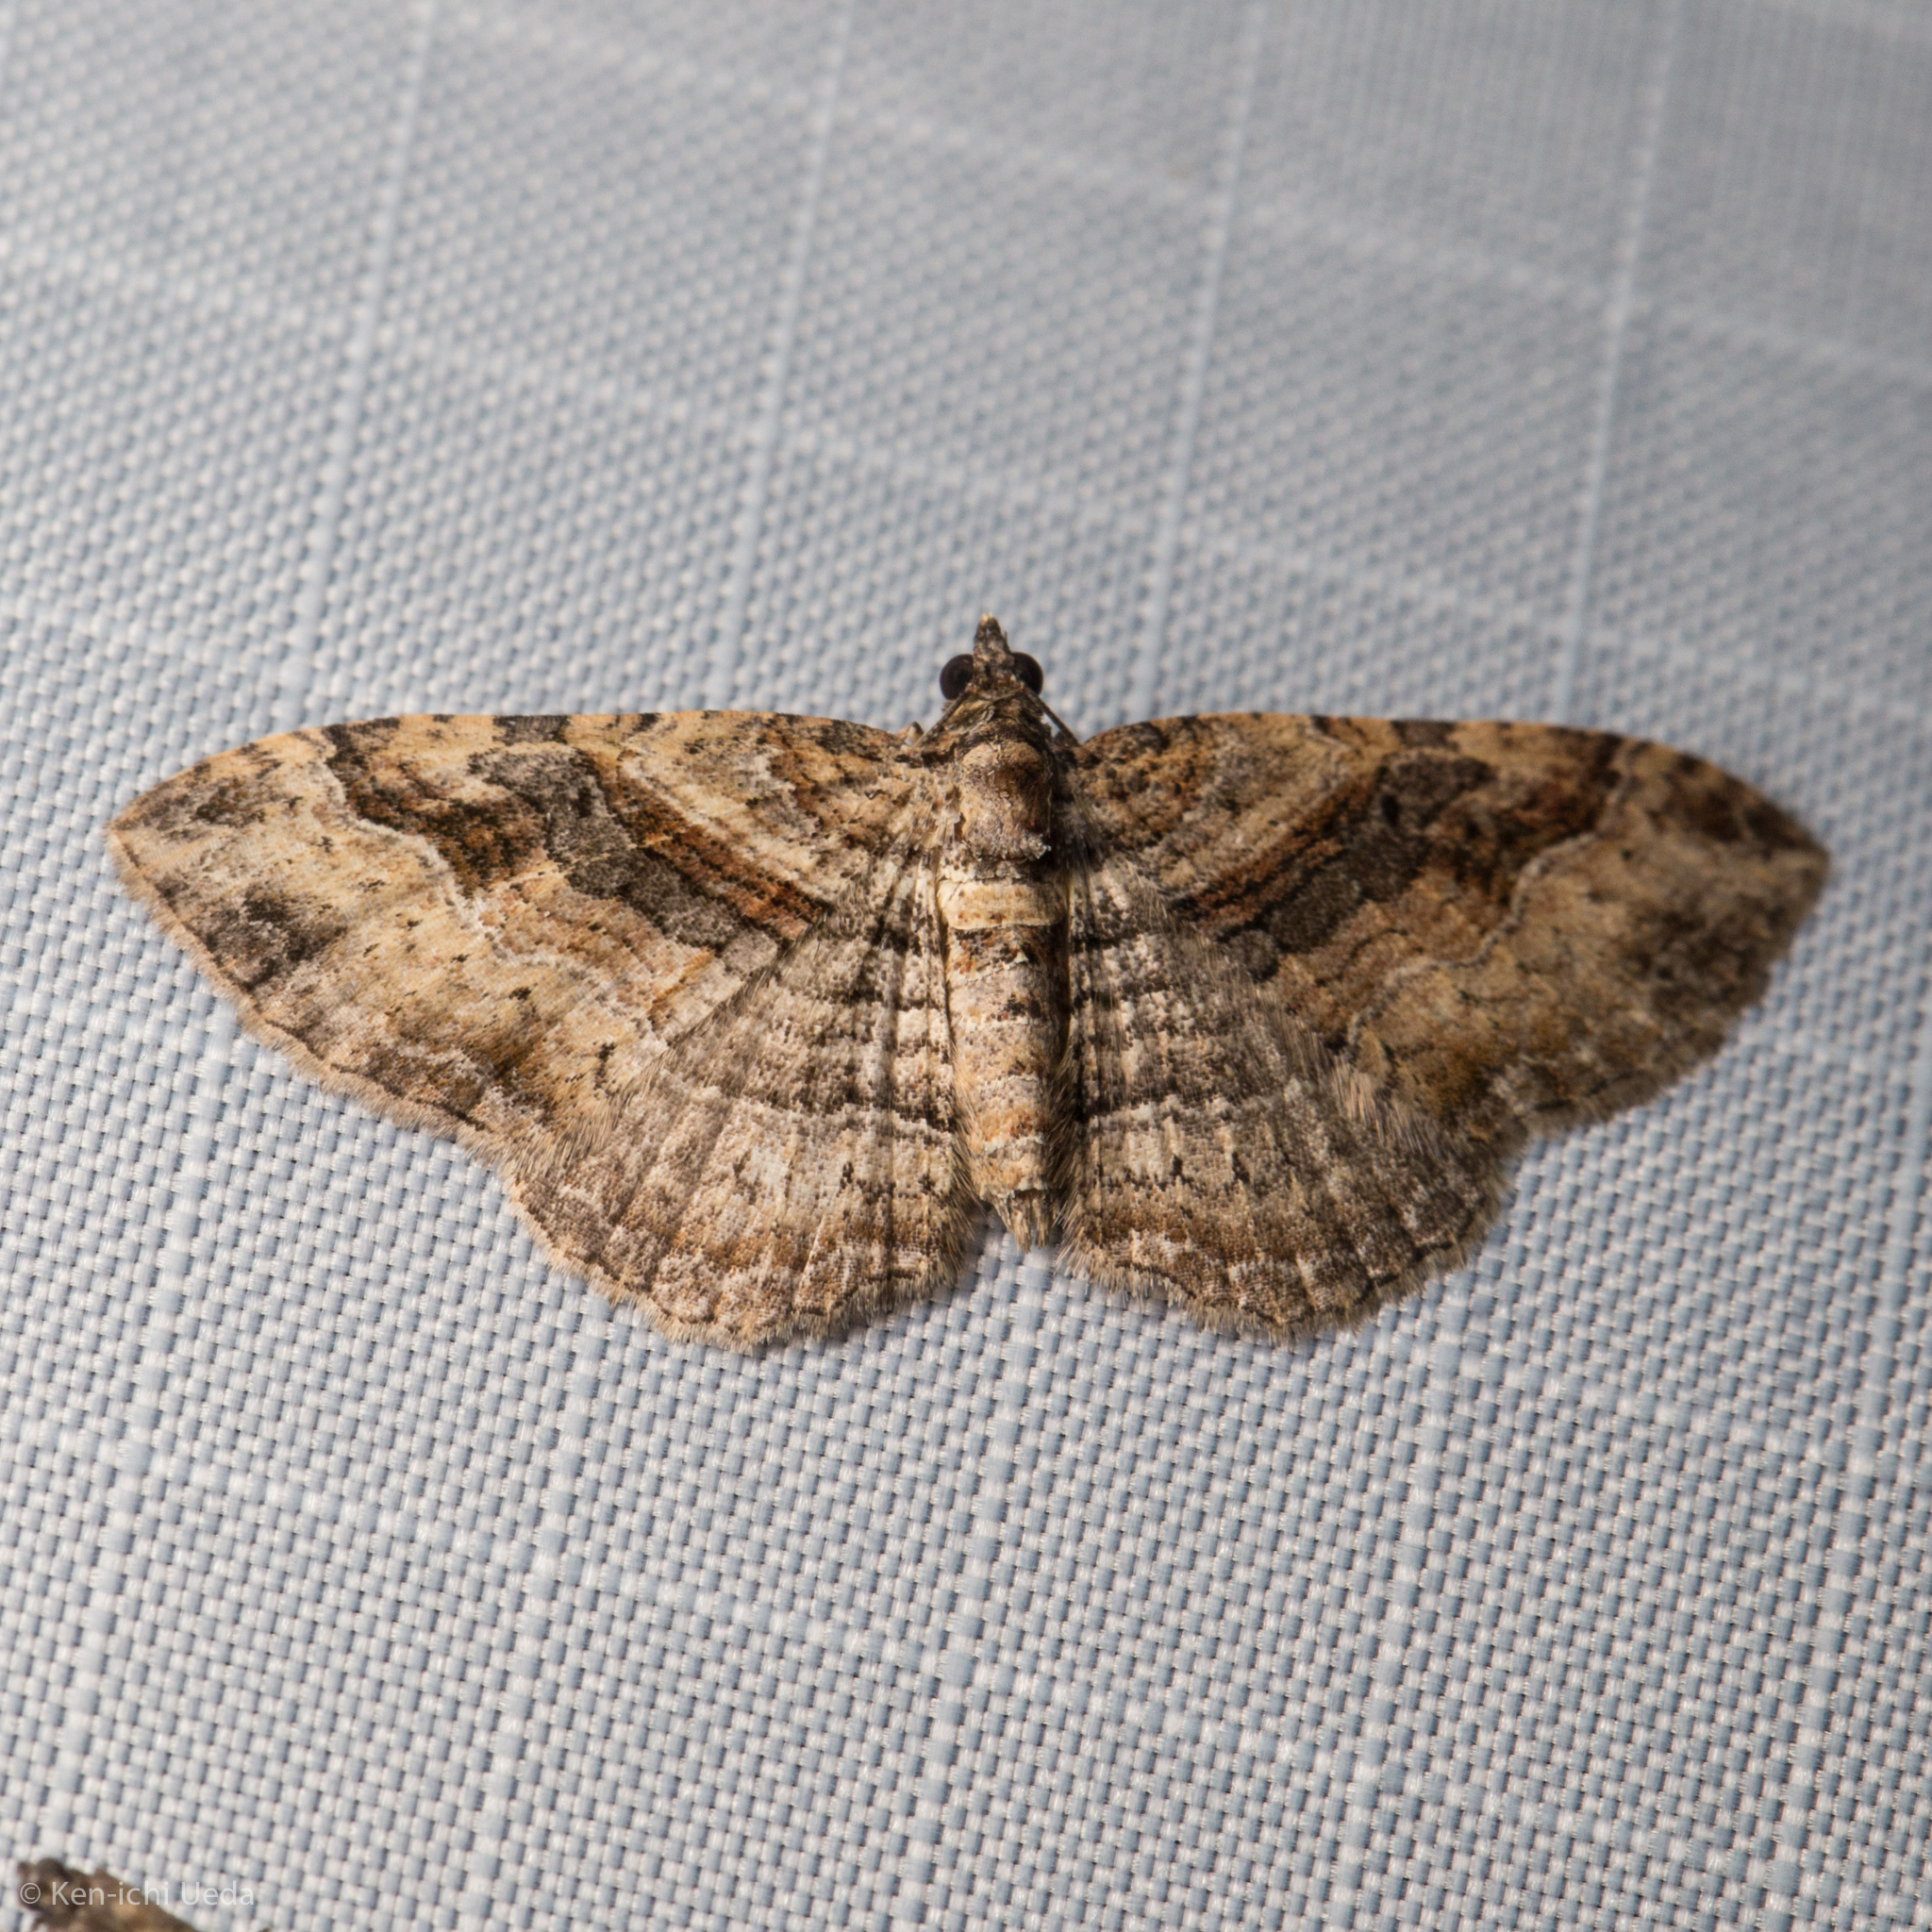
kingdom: Animalia
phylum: Arthropoda
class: Insecta
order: Lepidoptera
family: Geometridae
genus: Costaconvexa
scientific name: Costaconvexa centrostrigaria
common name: Bent-line carpet
